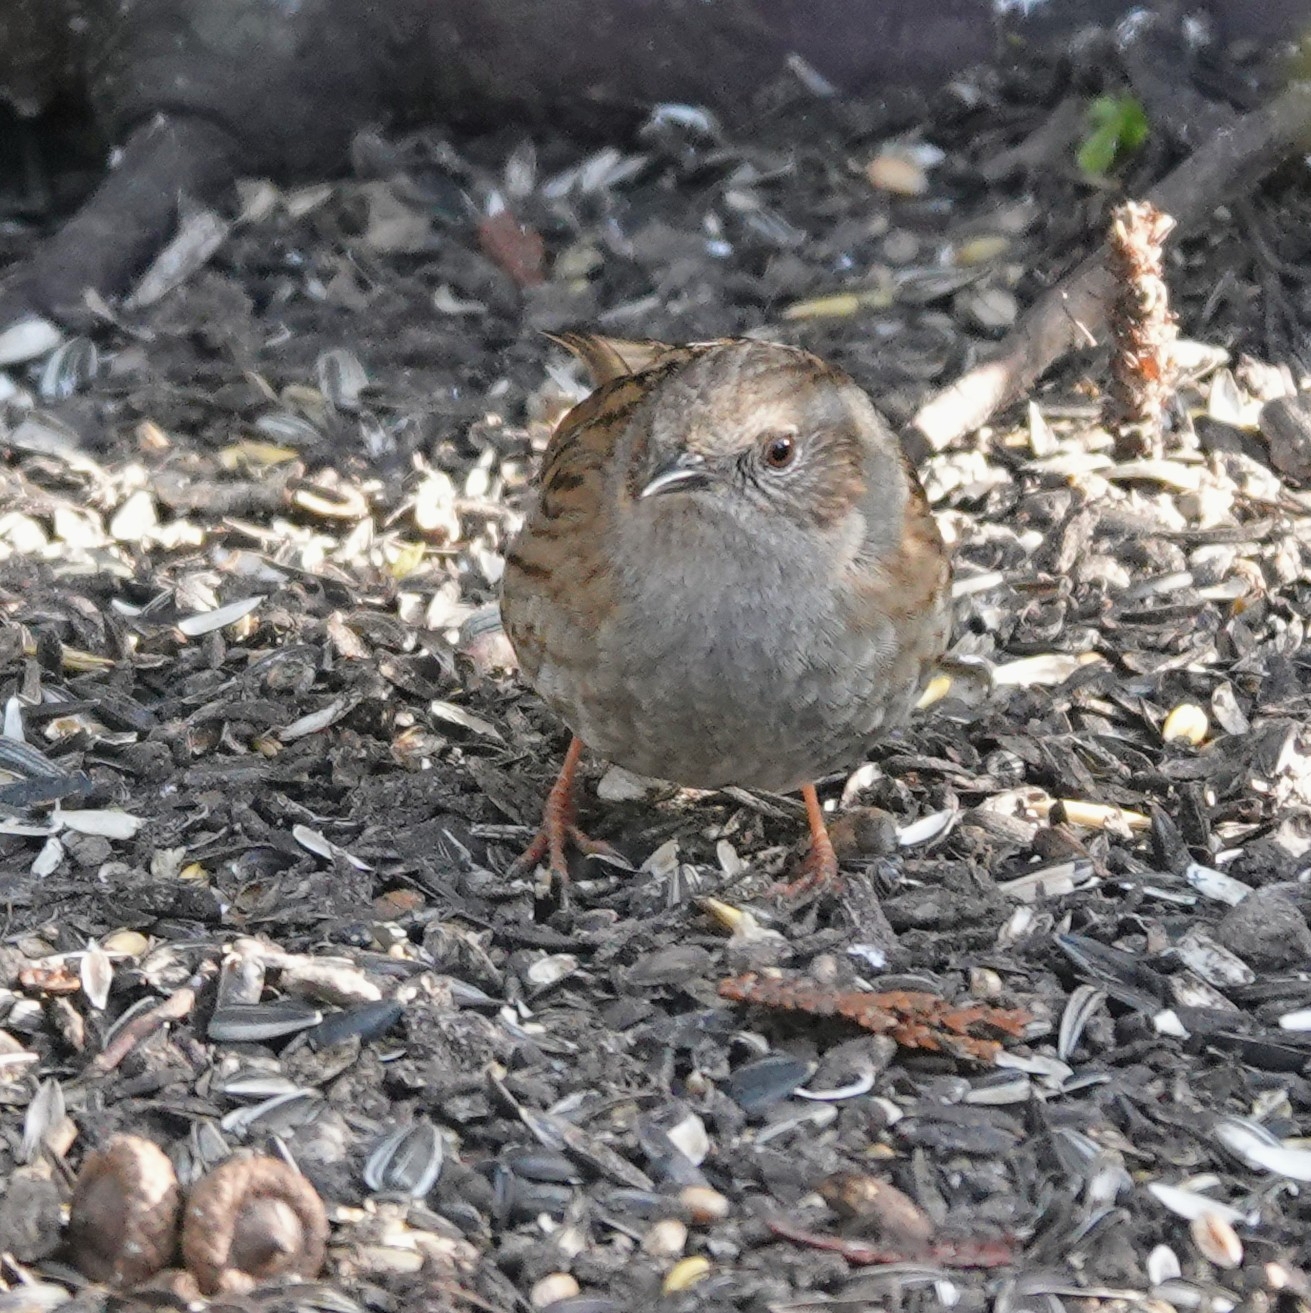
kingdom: Animalia
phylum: Chordata
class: Aves
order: Passeriformes
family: Prunellidae
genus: Prunella
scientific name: Prunella modularis
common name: Dunnock
